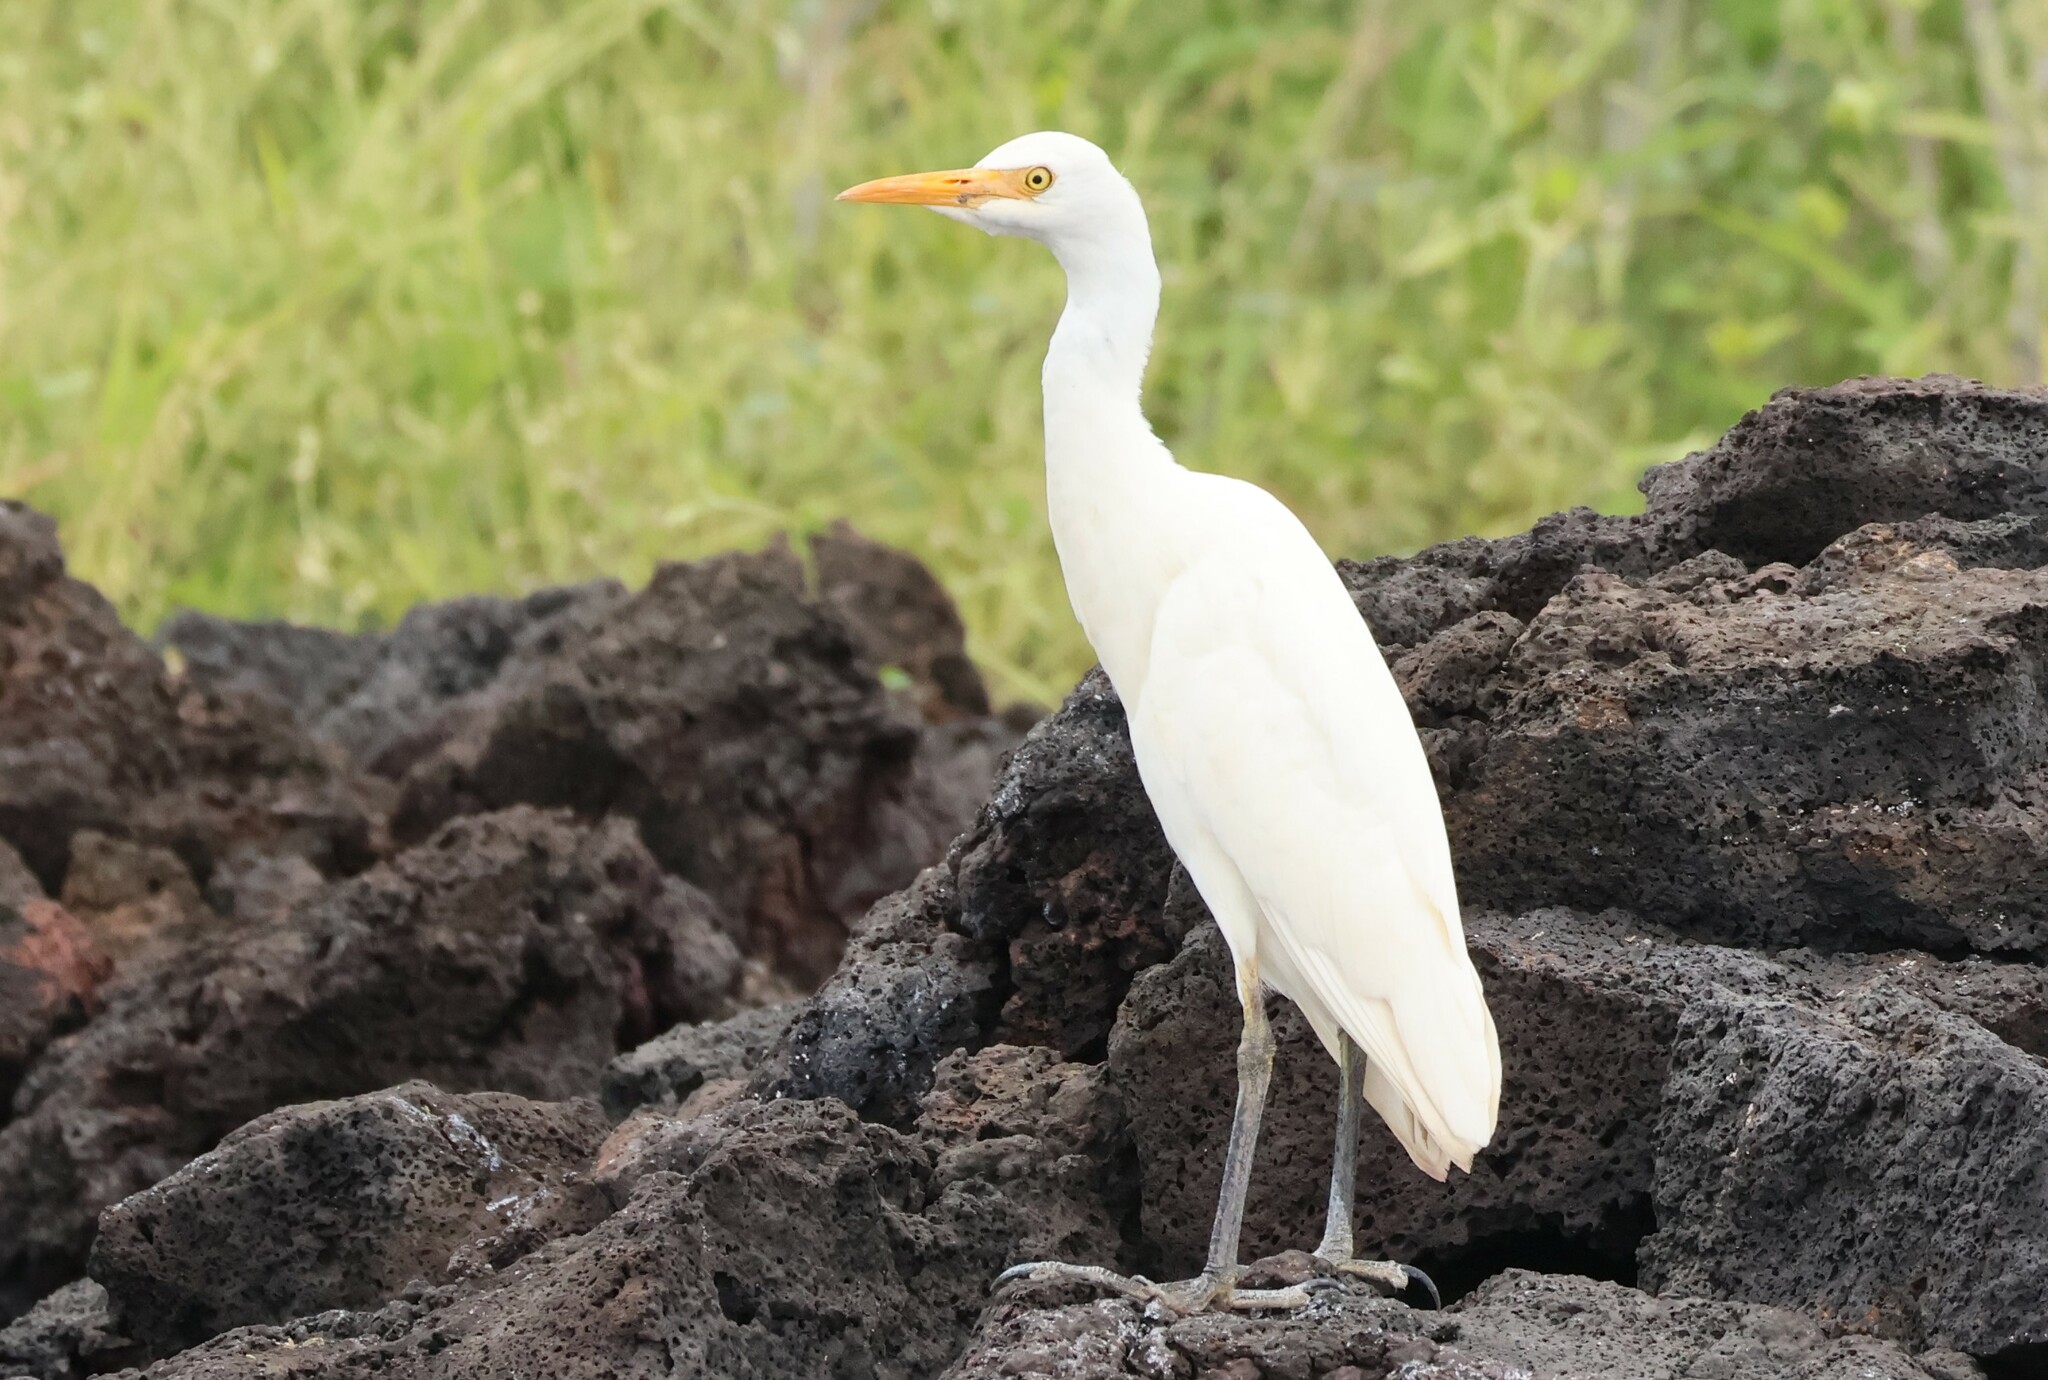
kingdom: Animalia
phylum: Chordata
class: Aves
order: Pelecaniformes
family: Ardeidae
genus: Bubulcus
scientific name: Bubulcus ibis
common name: Cattle egret
